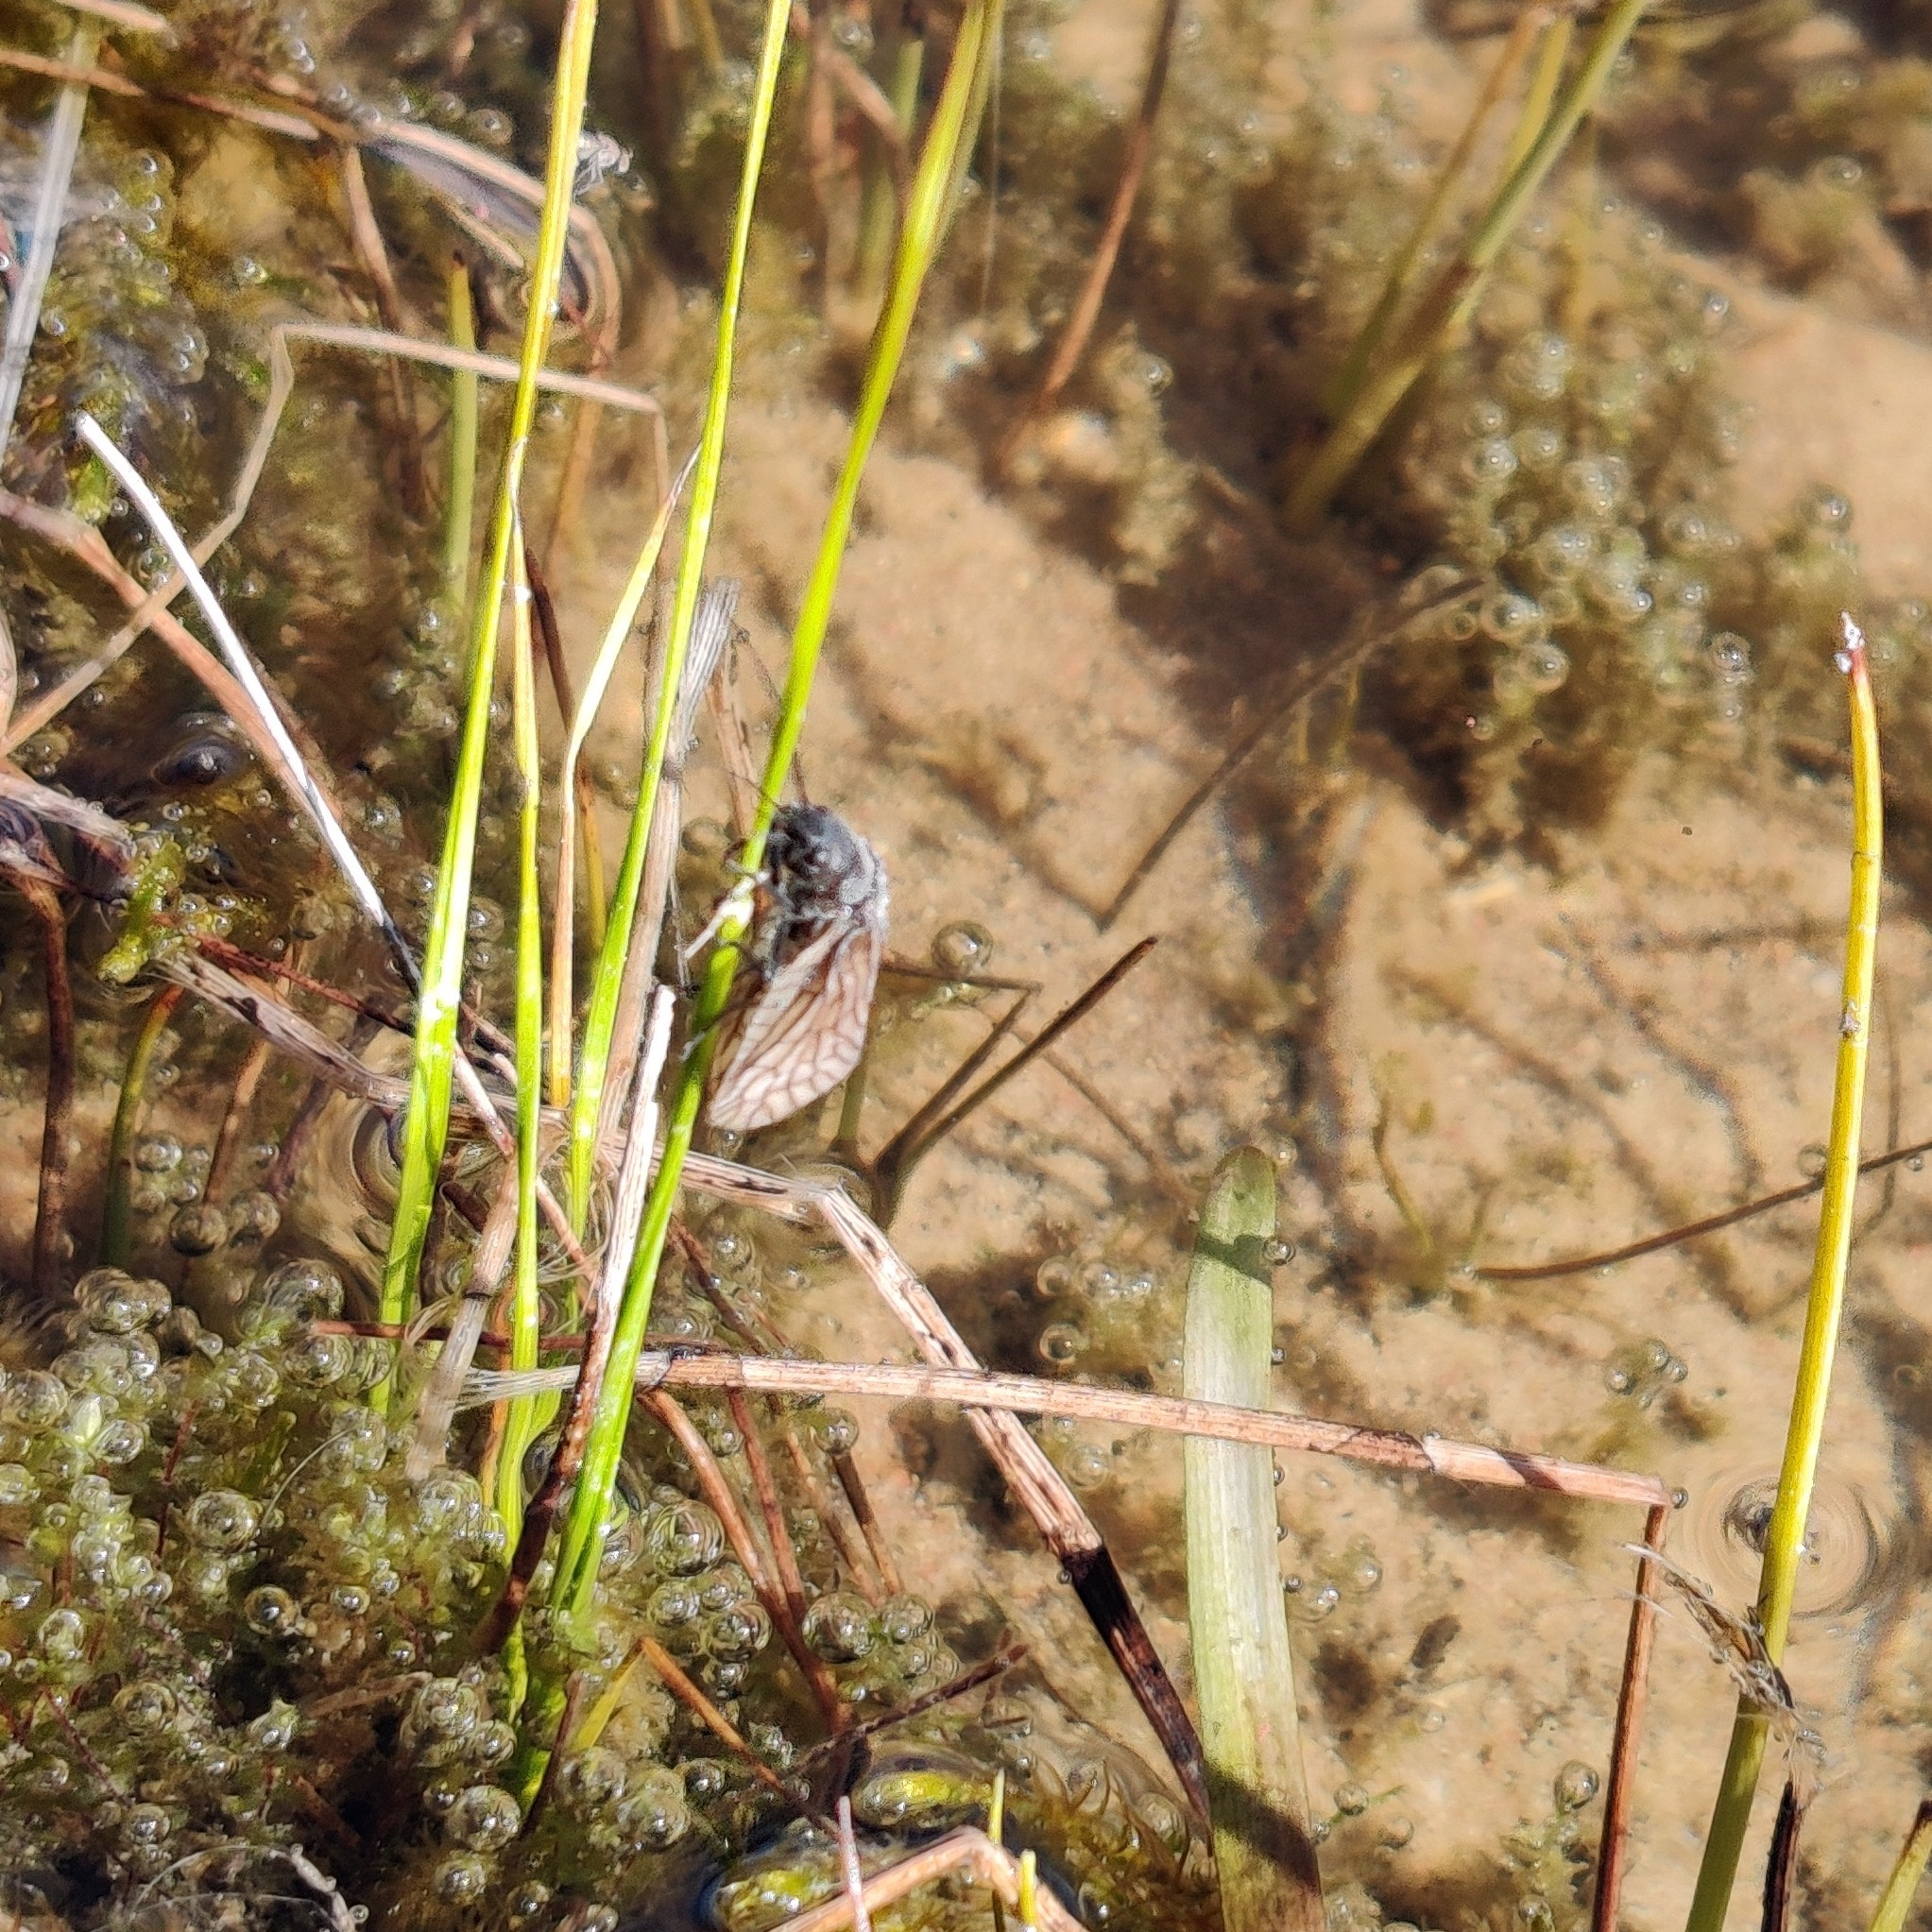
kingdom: Animalia
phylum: Arthropoda
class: Insecta
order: Megaloptera
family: Sialidae
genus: Sialis
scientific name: Sialis
